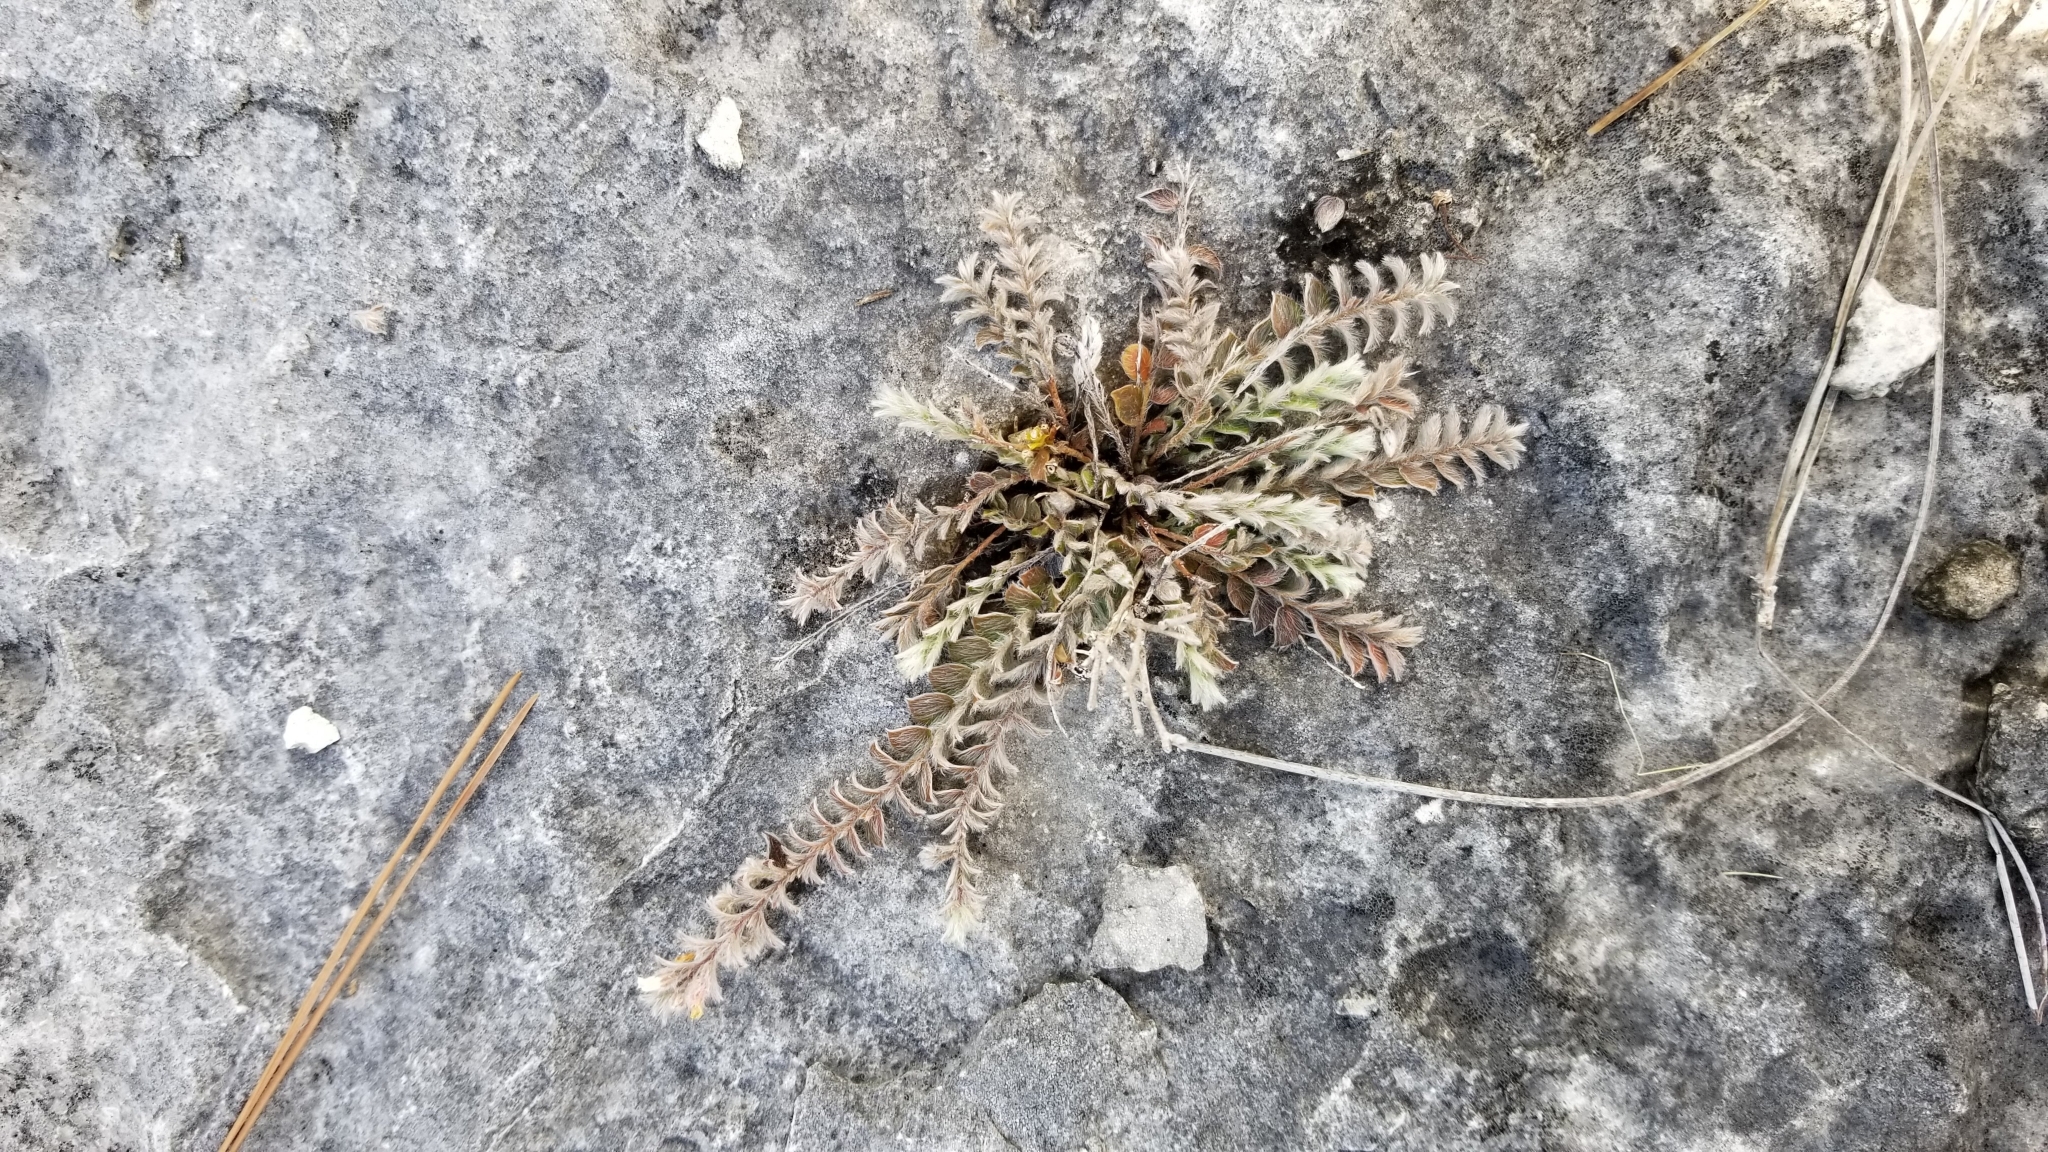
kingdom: Plantae
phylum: Tracheophyta
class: Magnoliopsida
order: Solanales
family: Convolvulaceae
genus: Evolvulus
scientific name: Evolvulus grisebachii
